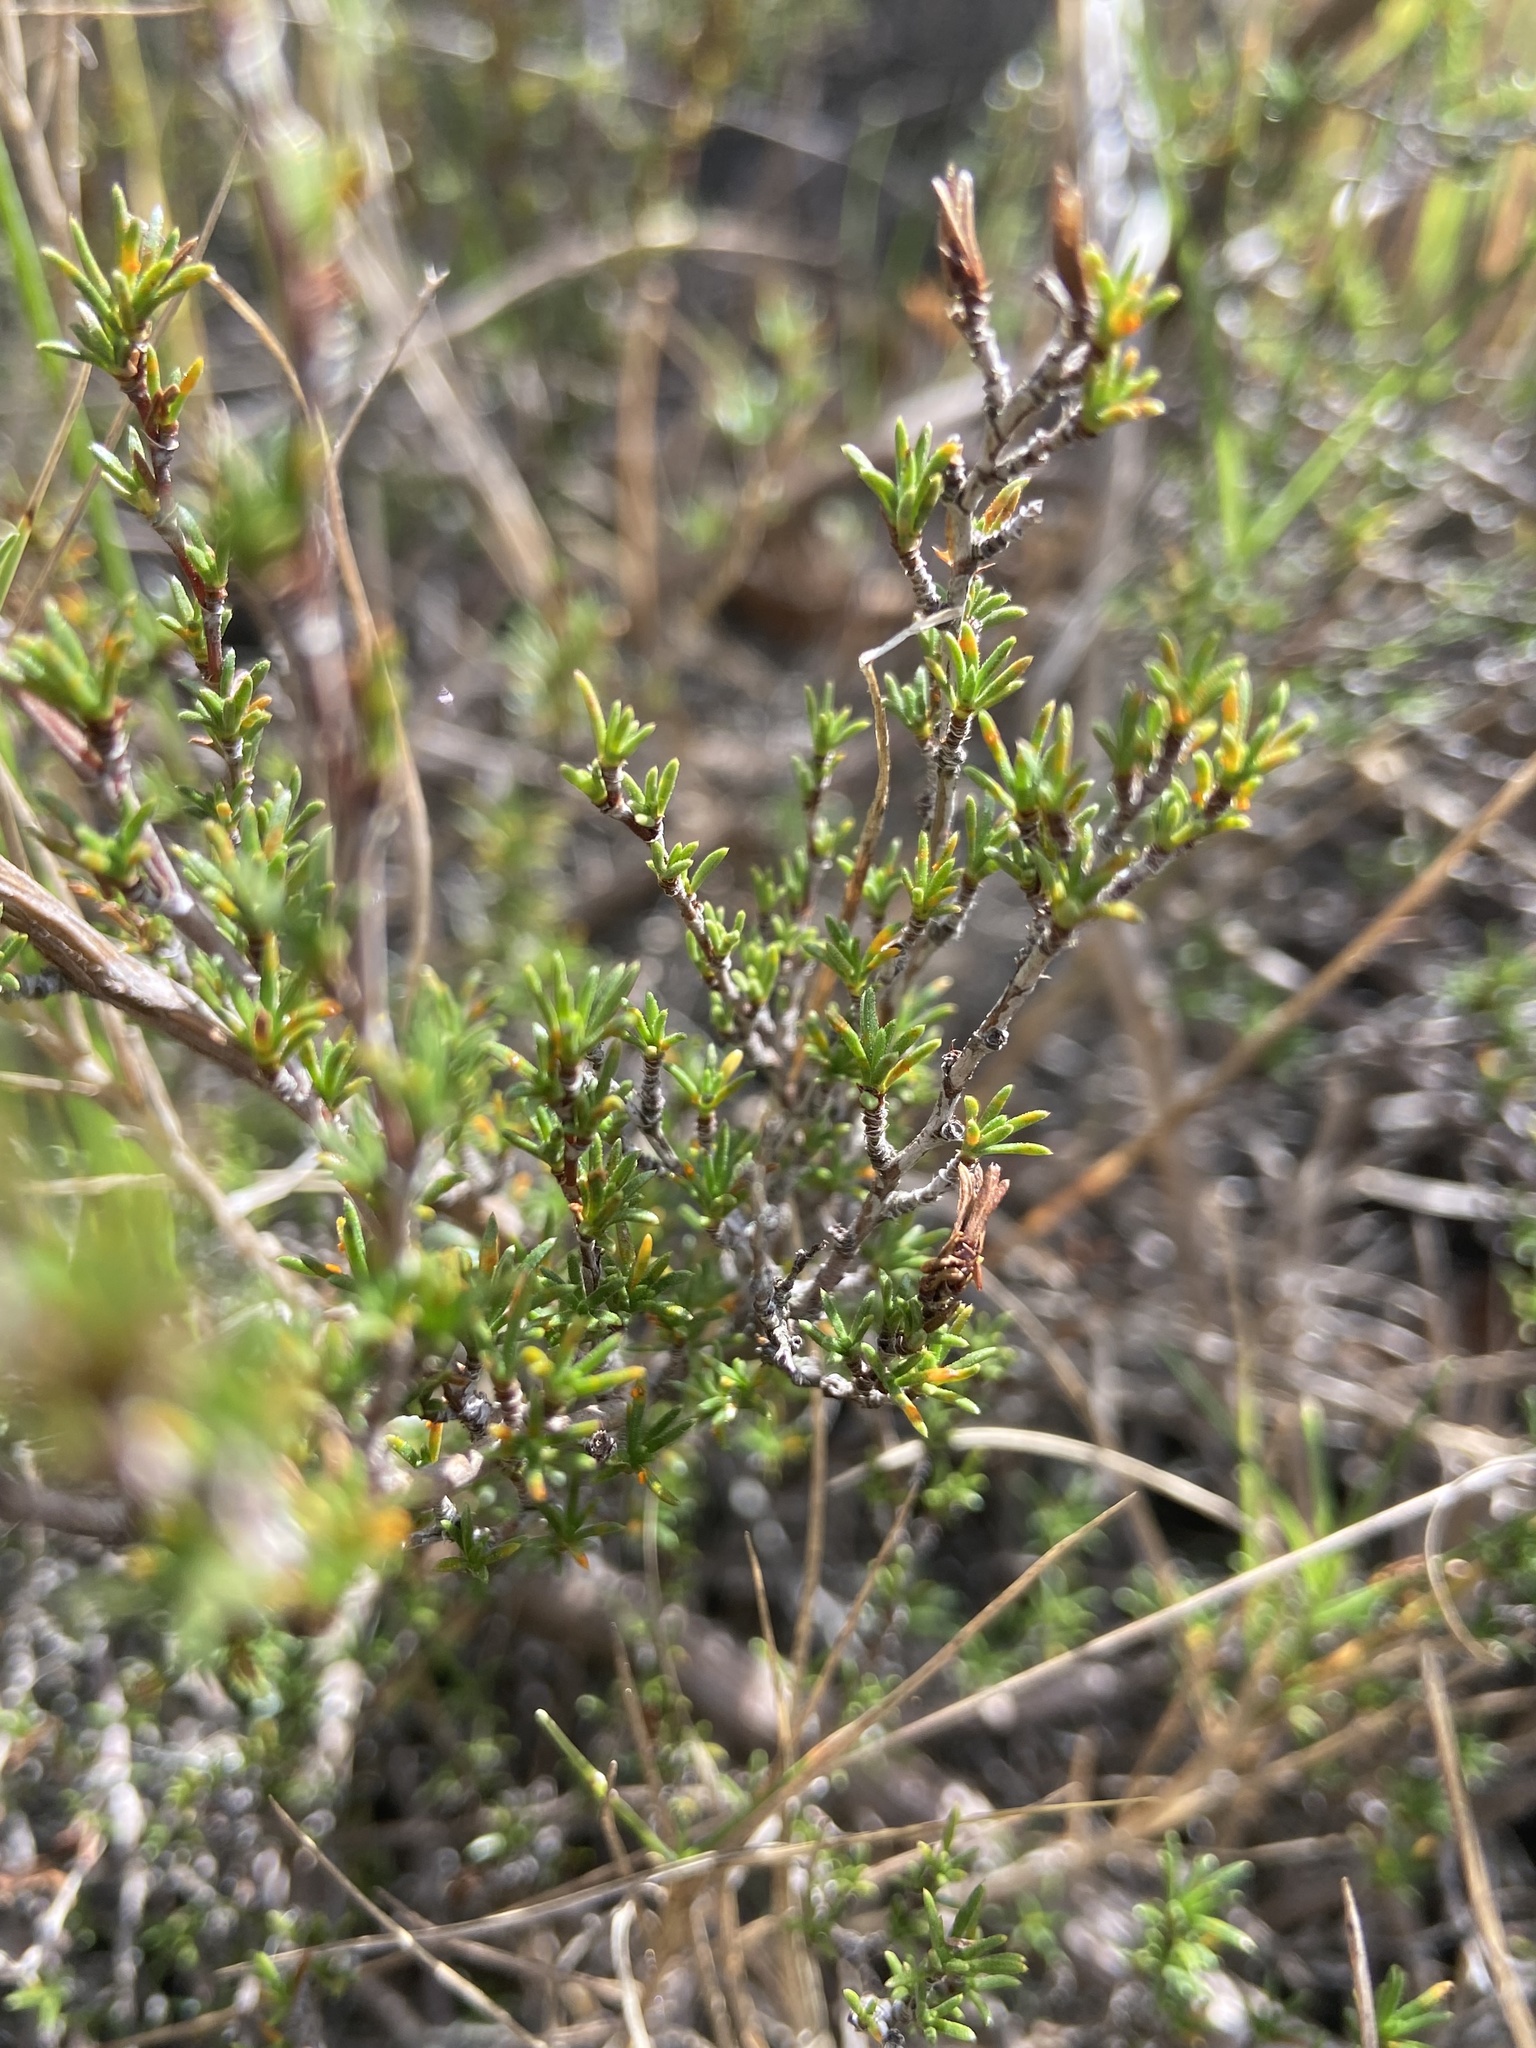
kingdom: Plantae
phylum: Tracheophyta
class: Magnoliopsida
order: Rosales
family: Rosaceae
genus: Cliffortia
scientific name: Cliffortia juniperina
